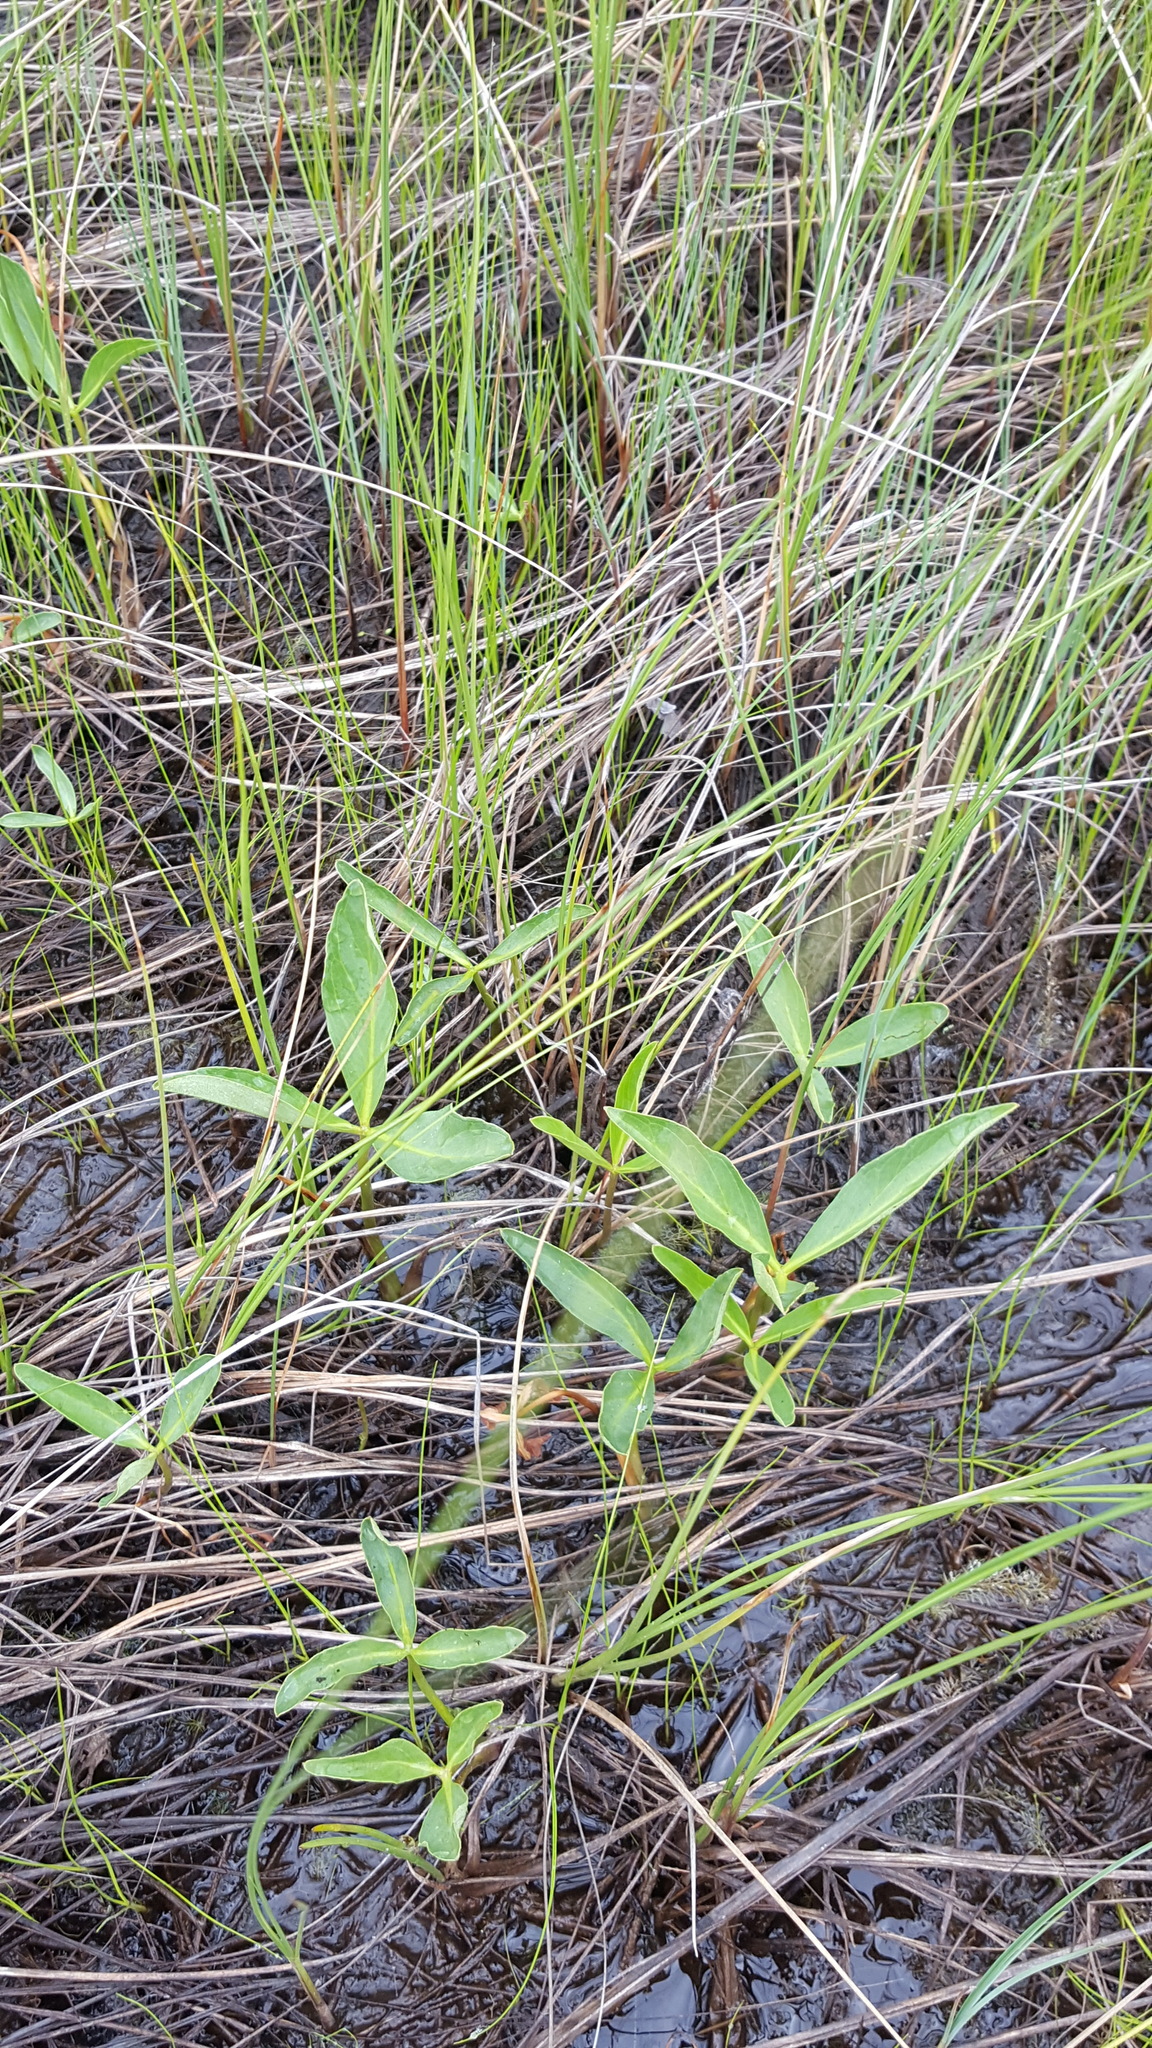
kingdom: Plantae
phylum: Tracheophyta
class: Magnoliopsida
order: Asterales
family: Menyanthaceae
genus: Menyanthes
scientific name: Menyanthes trifoliata
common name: Bogbean
